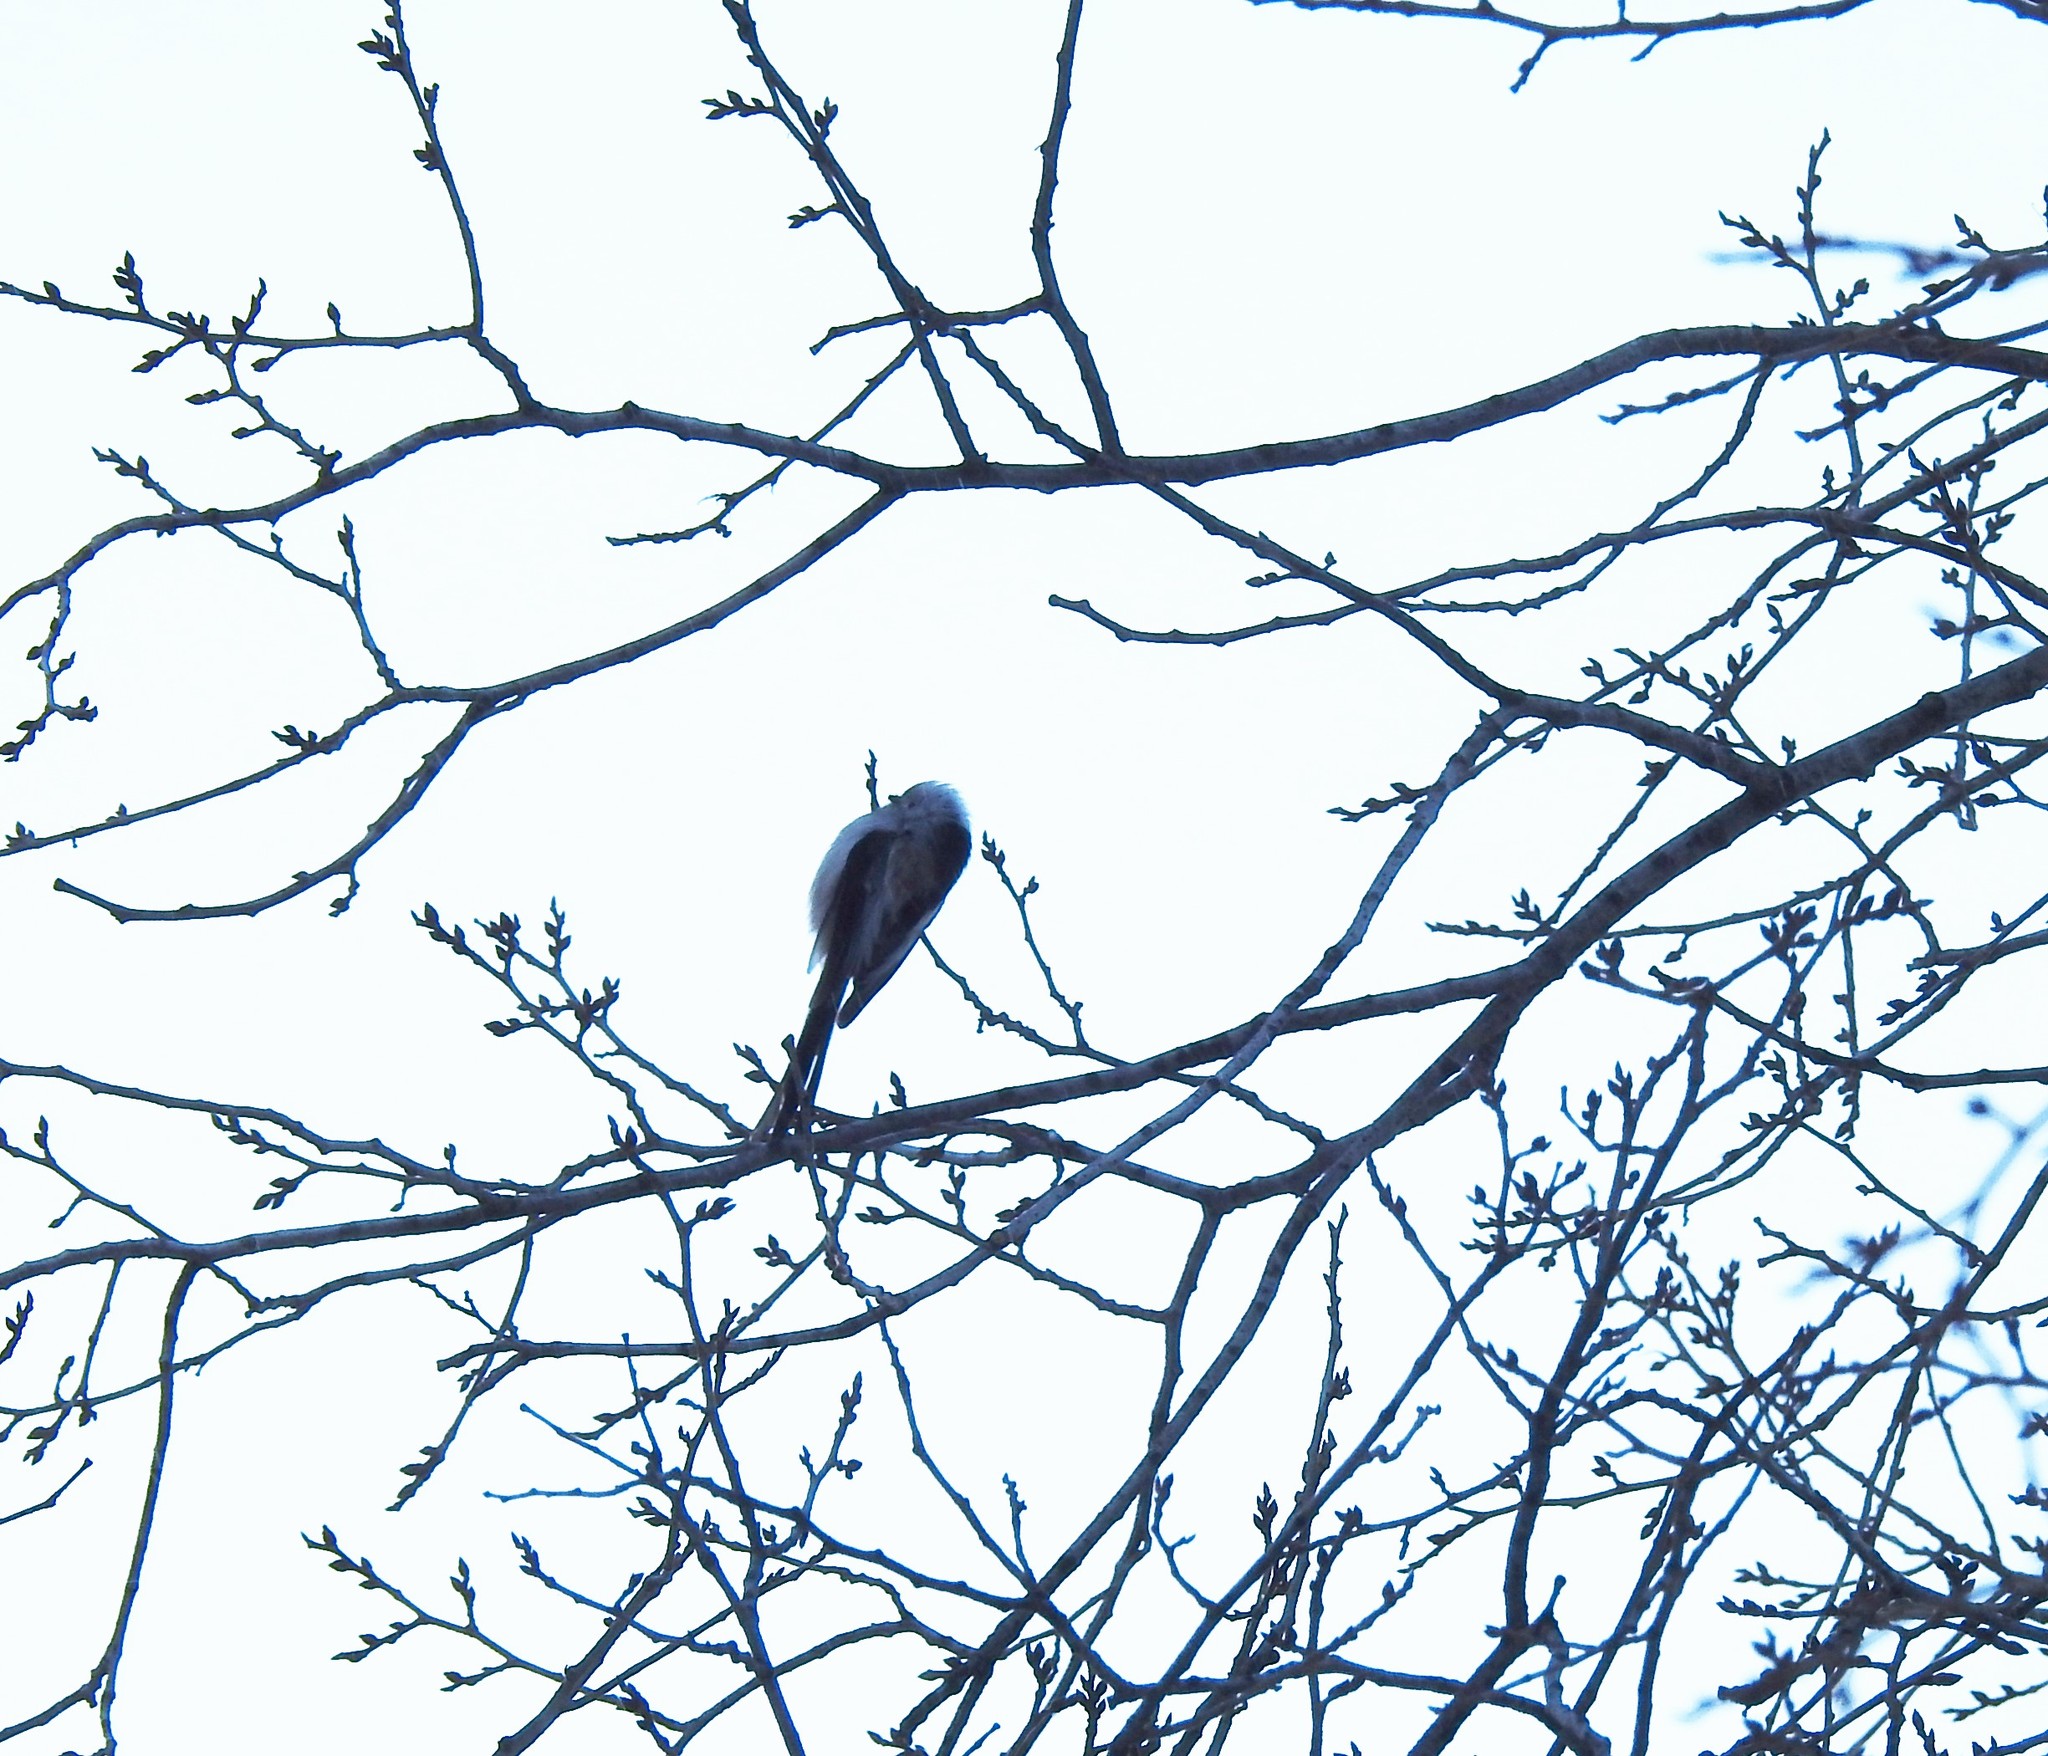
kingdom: Animalia
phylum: Chordata
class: Aves
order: Passeriformes
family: Aegithalidae
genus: Aegithalos
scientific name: Aegithalos caudatus
